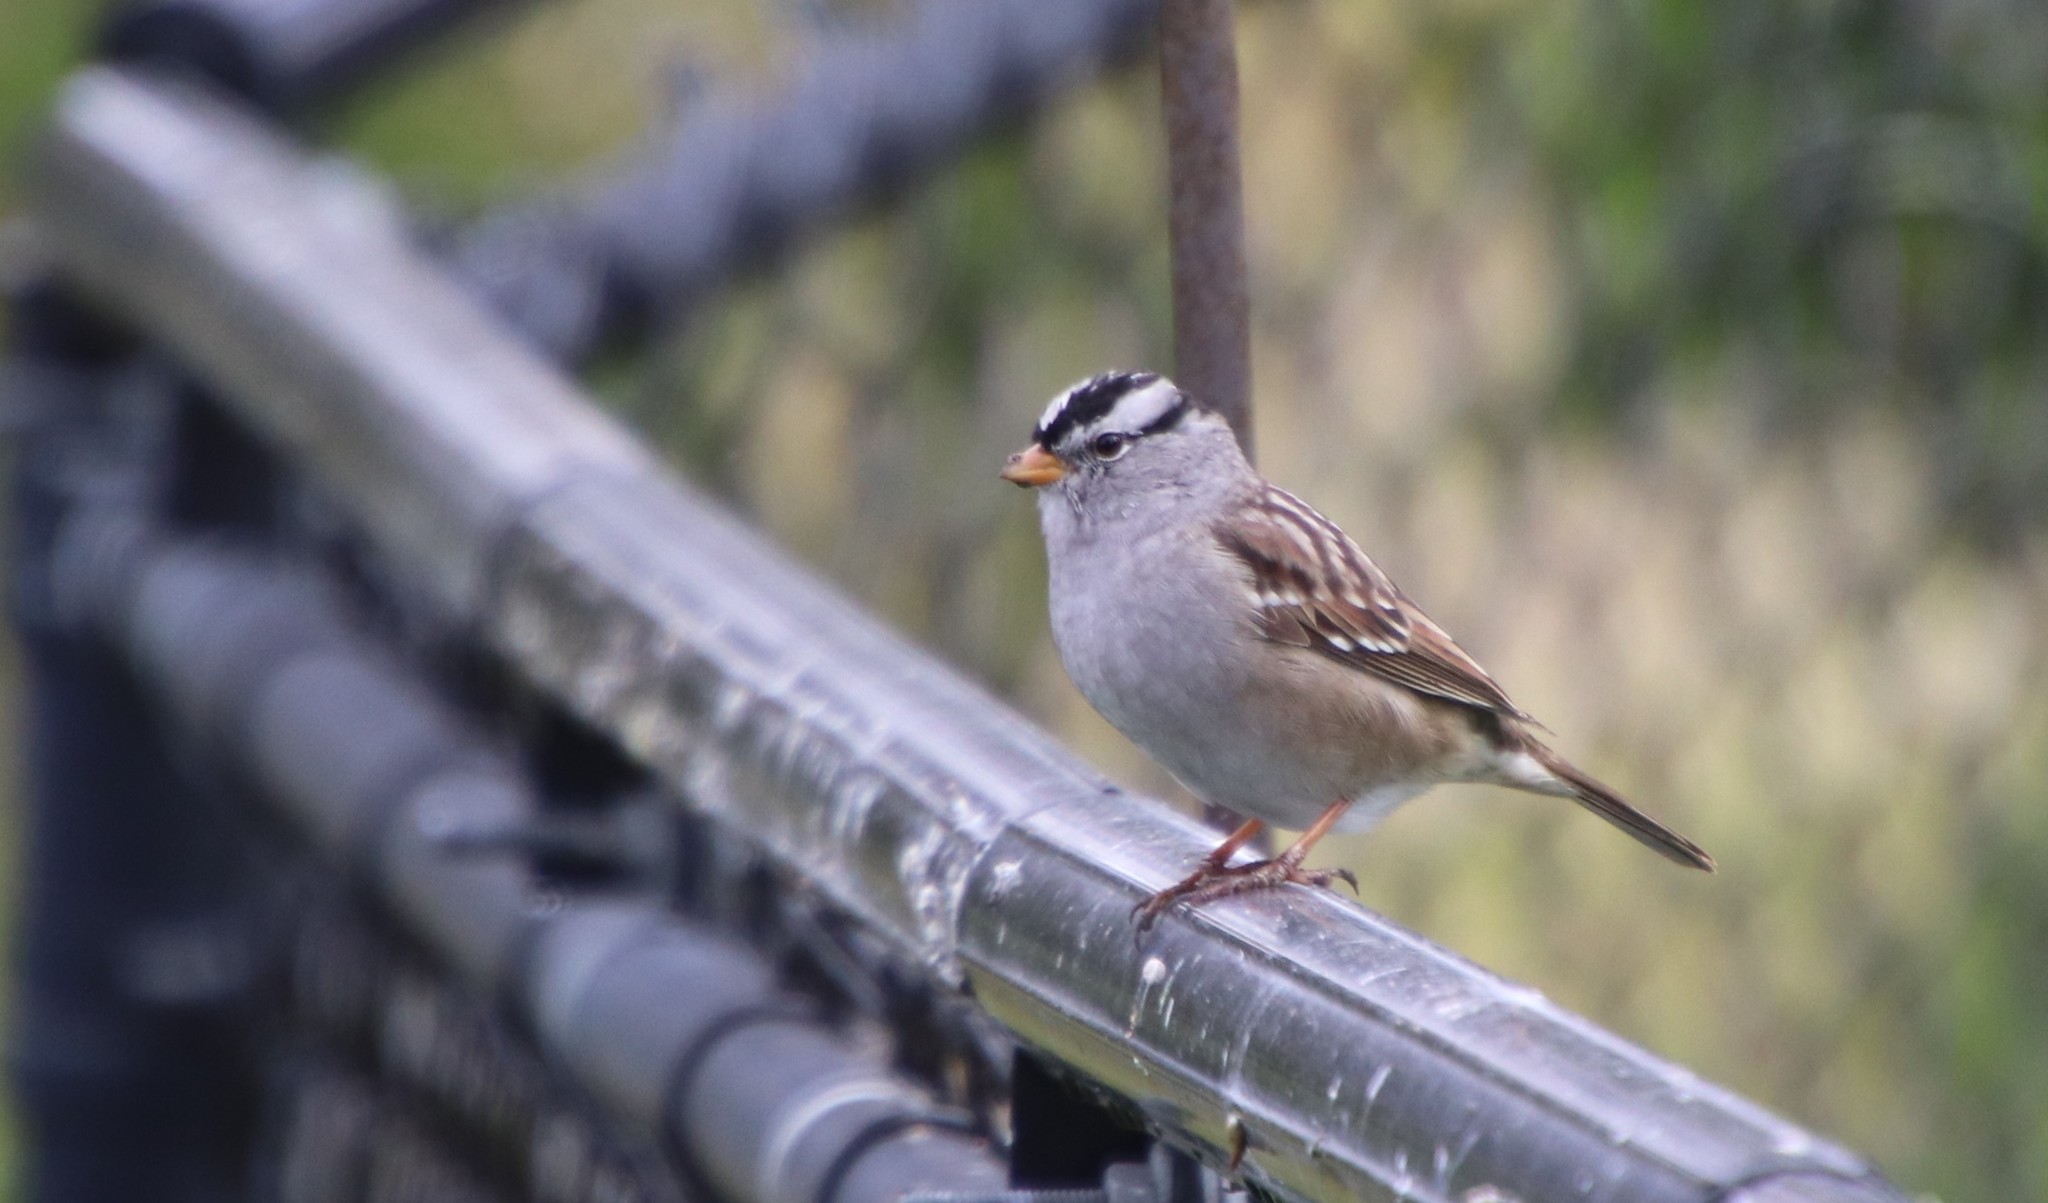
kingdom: Animalia
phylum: Chordata
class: Aves
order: Passeriformes
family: Passerellidae
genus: Zonotrichia
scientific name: Zonotrichia leucophrys
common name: White-crowned sparrow
